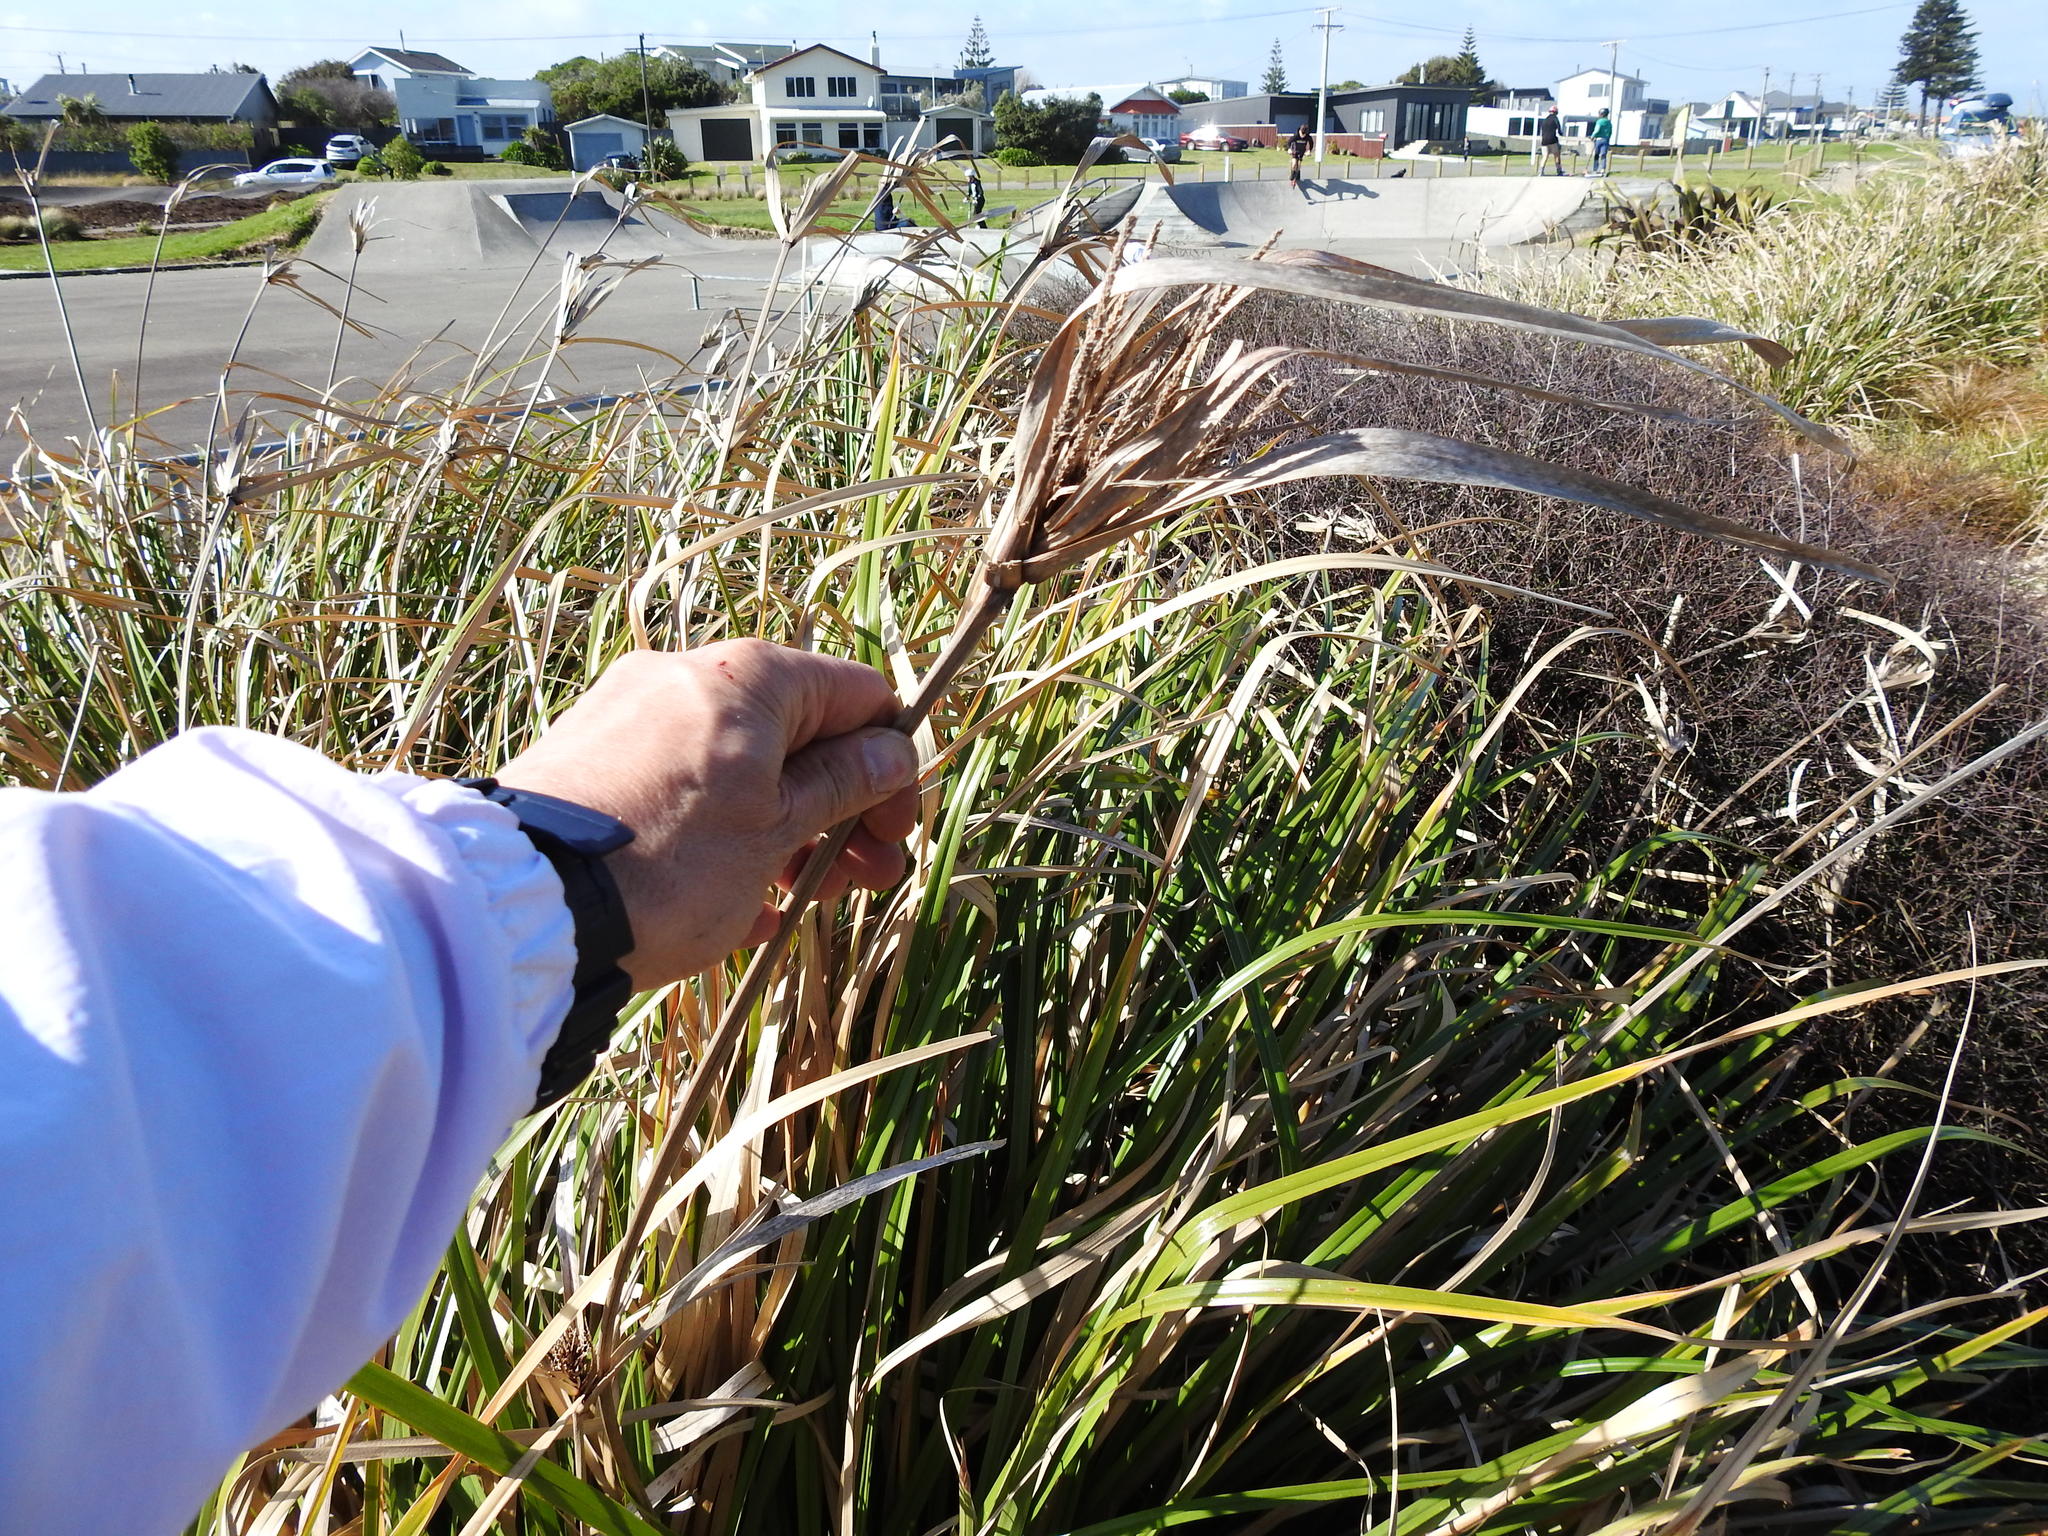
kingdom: Plantae
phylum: Tracheophyta
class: Liliopsida
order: Poales
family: Cyperaceae
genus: Cyperus
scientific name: Cyperus ustulatus
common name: Giant umbrella-sedge
